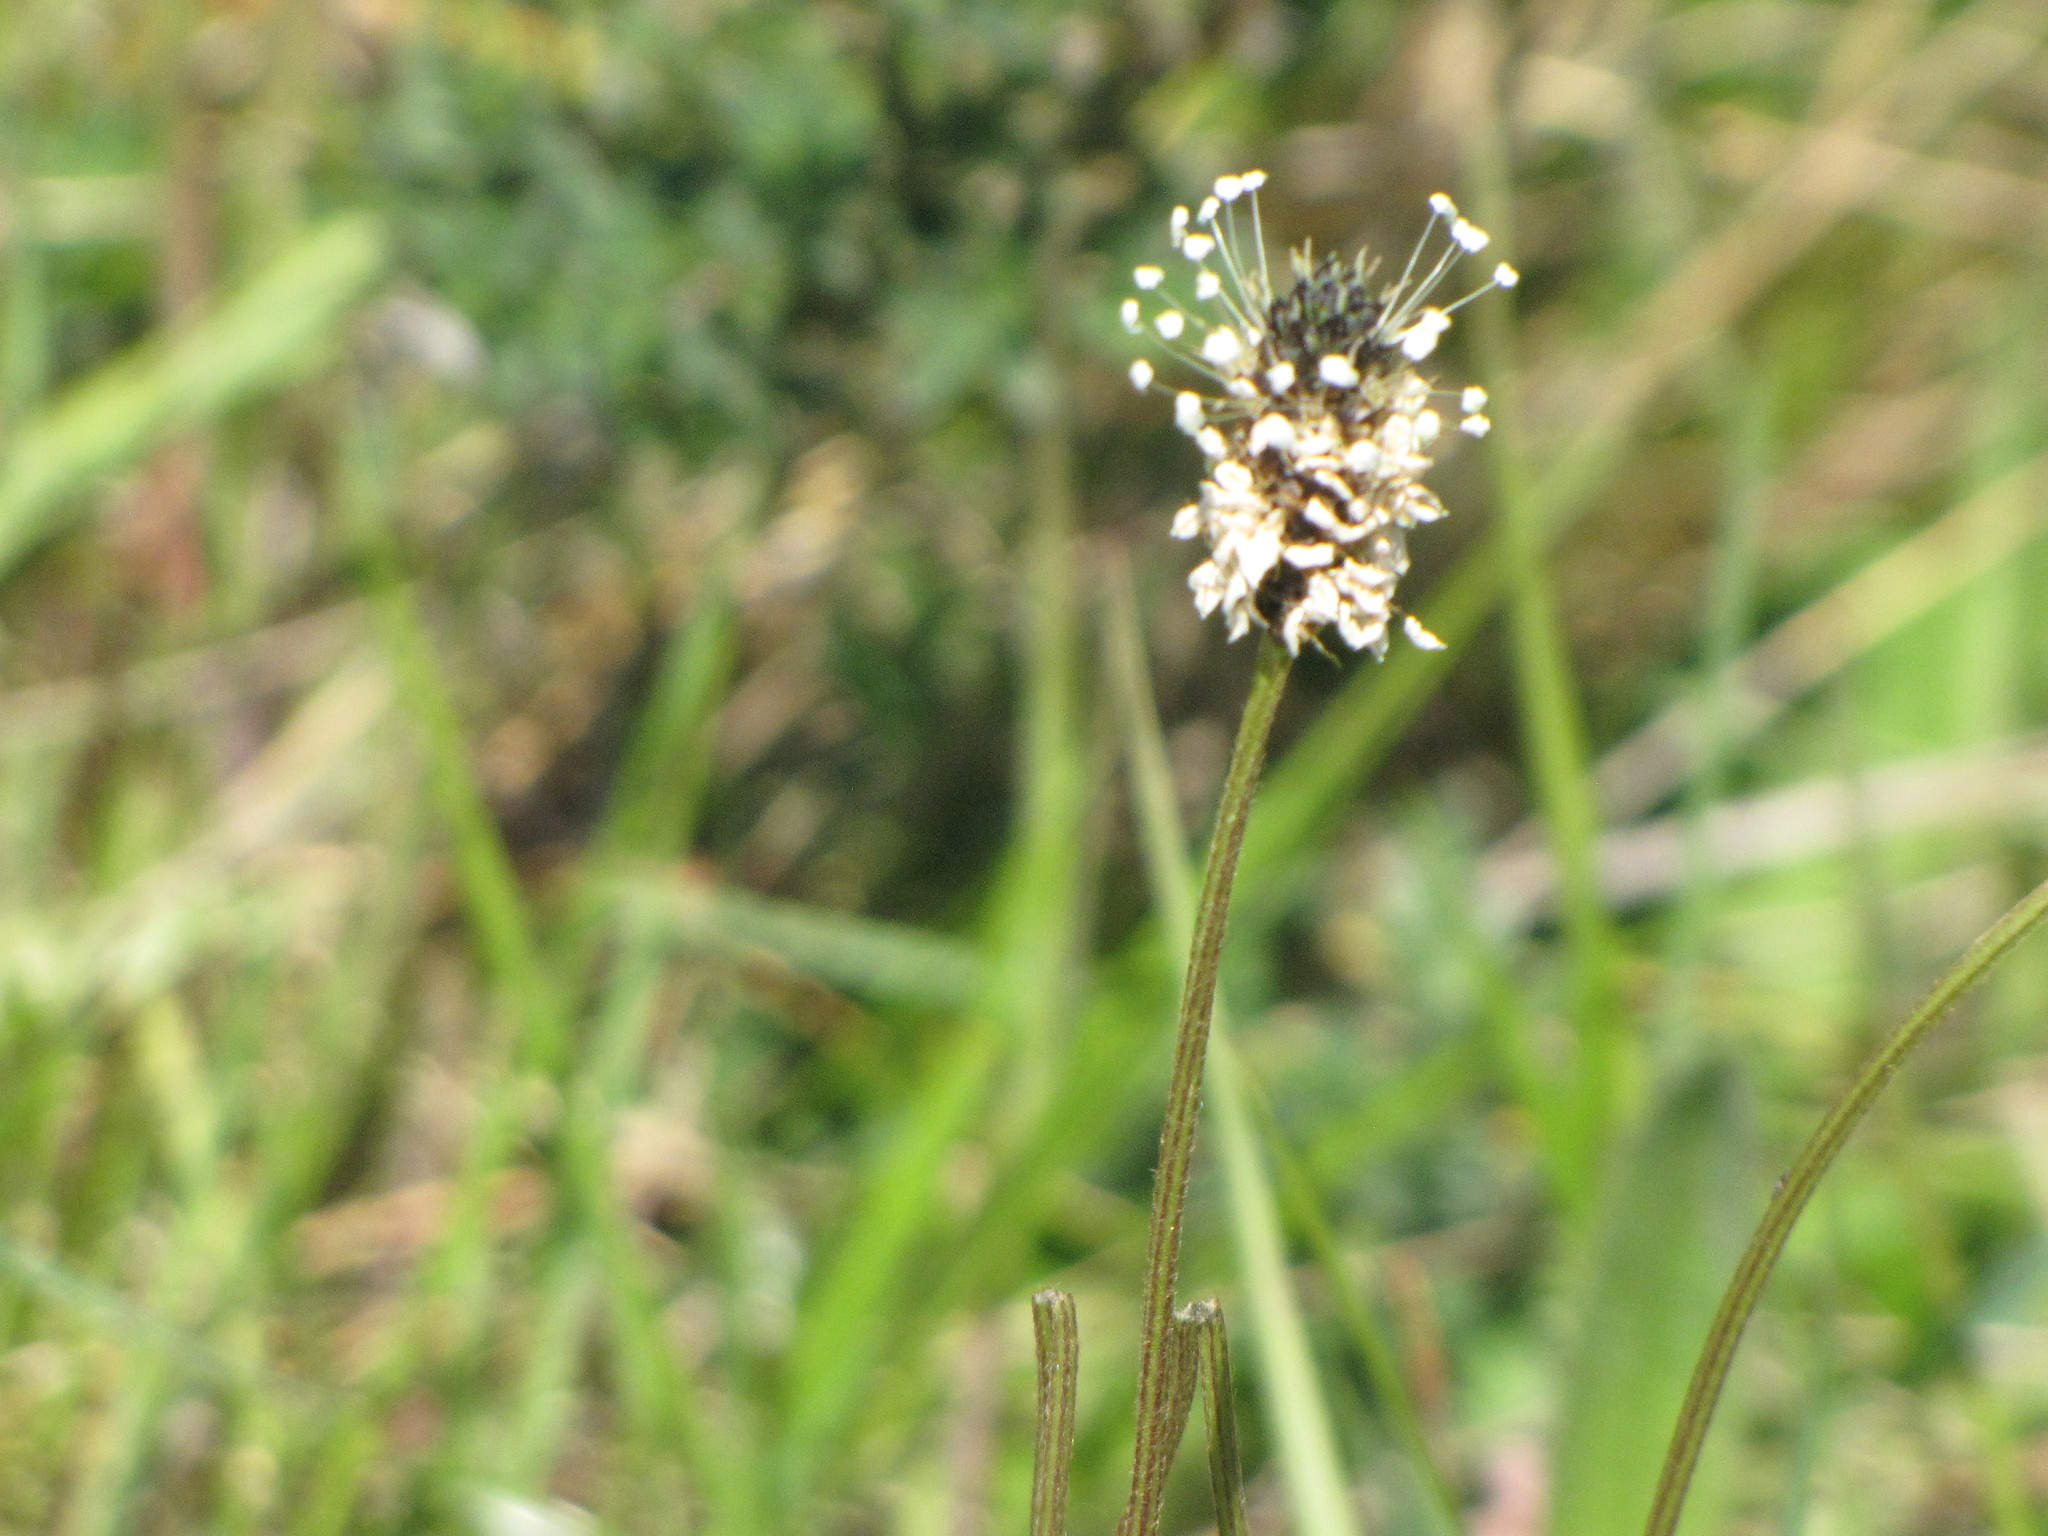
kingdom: Plantae
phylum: Tracheophyta
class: Magnoliopsida
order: Lamiales
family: Plantaginaceae
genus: Plantago
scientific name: Plantago lanceolata
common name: Ribwort plantain
